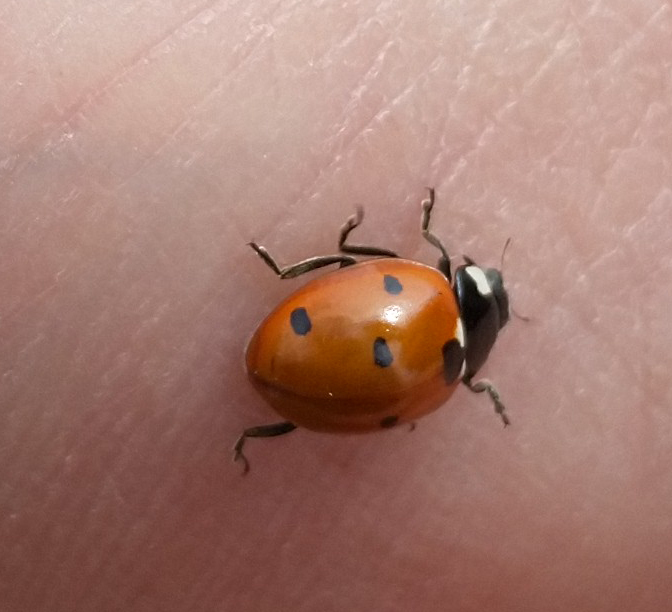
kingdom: Animalia
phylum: Arthropoda
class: Insecta
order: Coleoptera
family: Coccinellidae
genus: Coccinella
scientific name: Coccinella septempunctata
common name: Sevenspotted lady beetle
